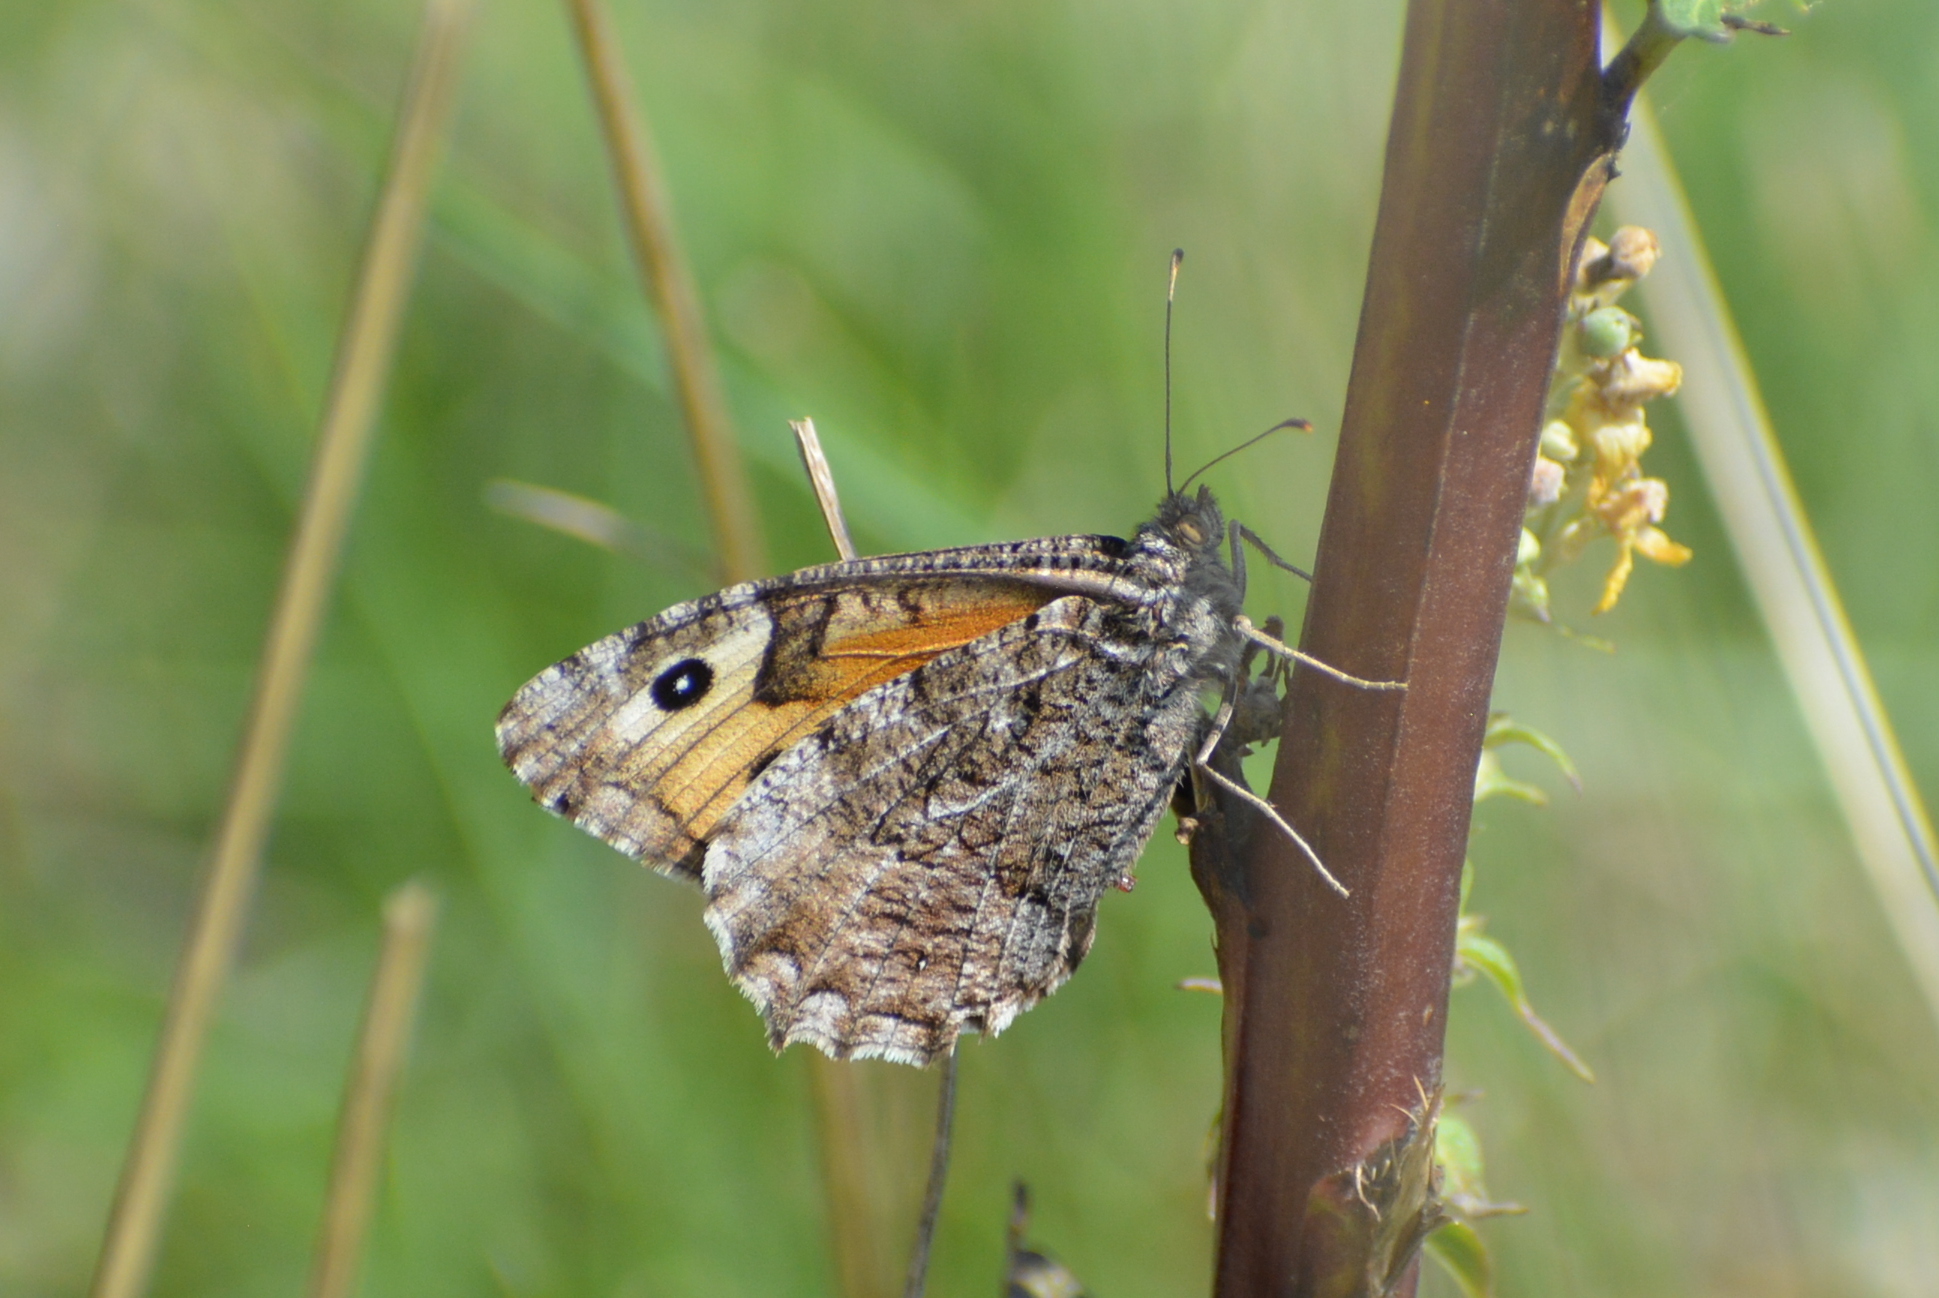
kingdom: Animalia
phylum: Arthropoda
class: Insecta
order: Lepidoptera
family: Nymphalidae
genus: Hipparchia
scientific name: Hipparchia semele
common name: Grayling
